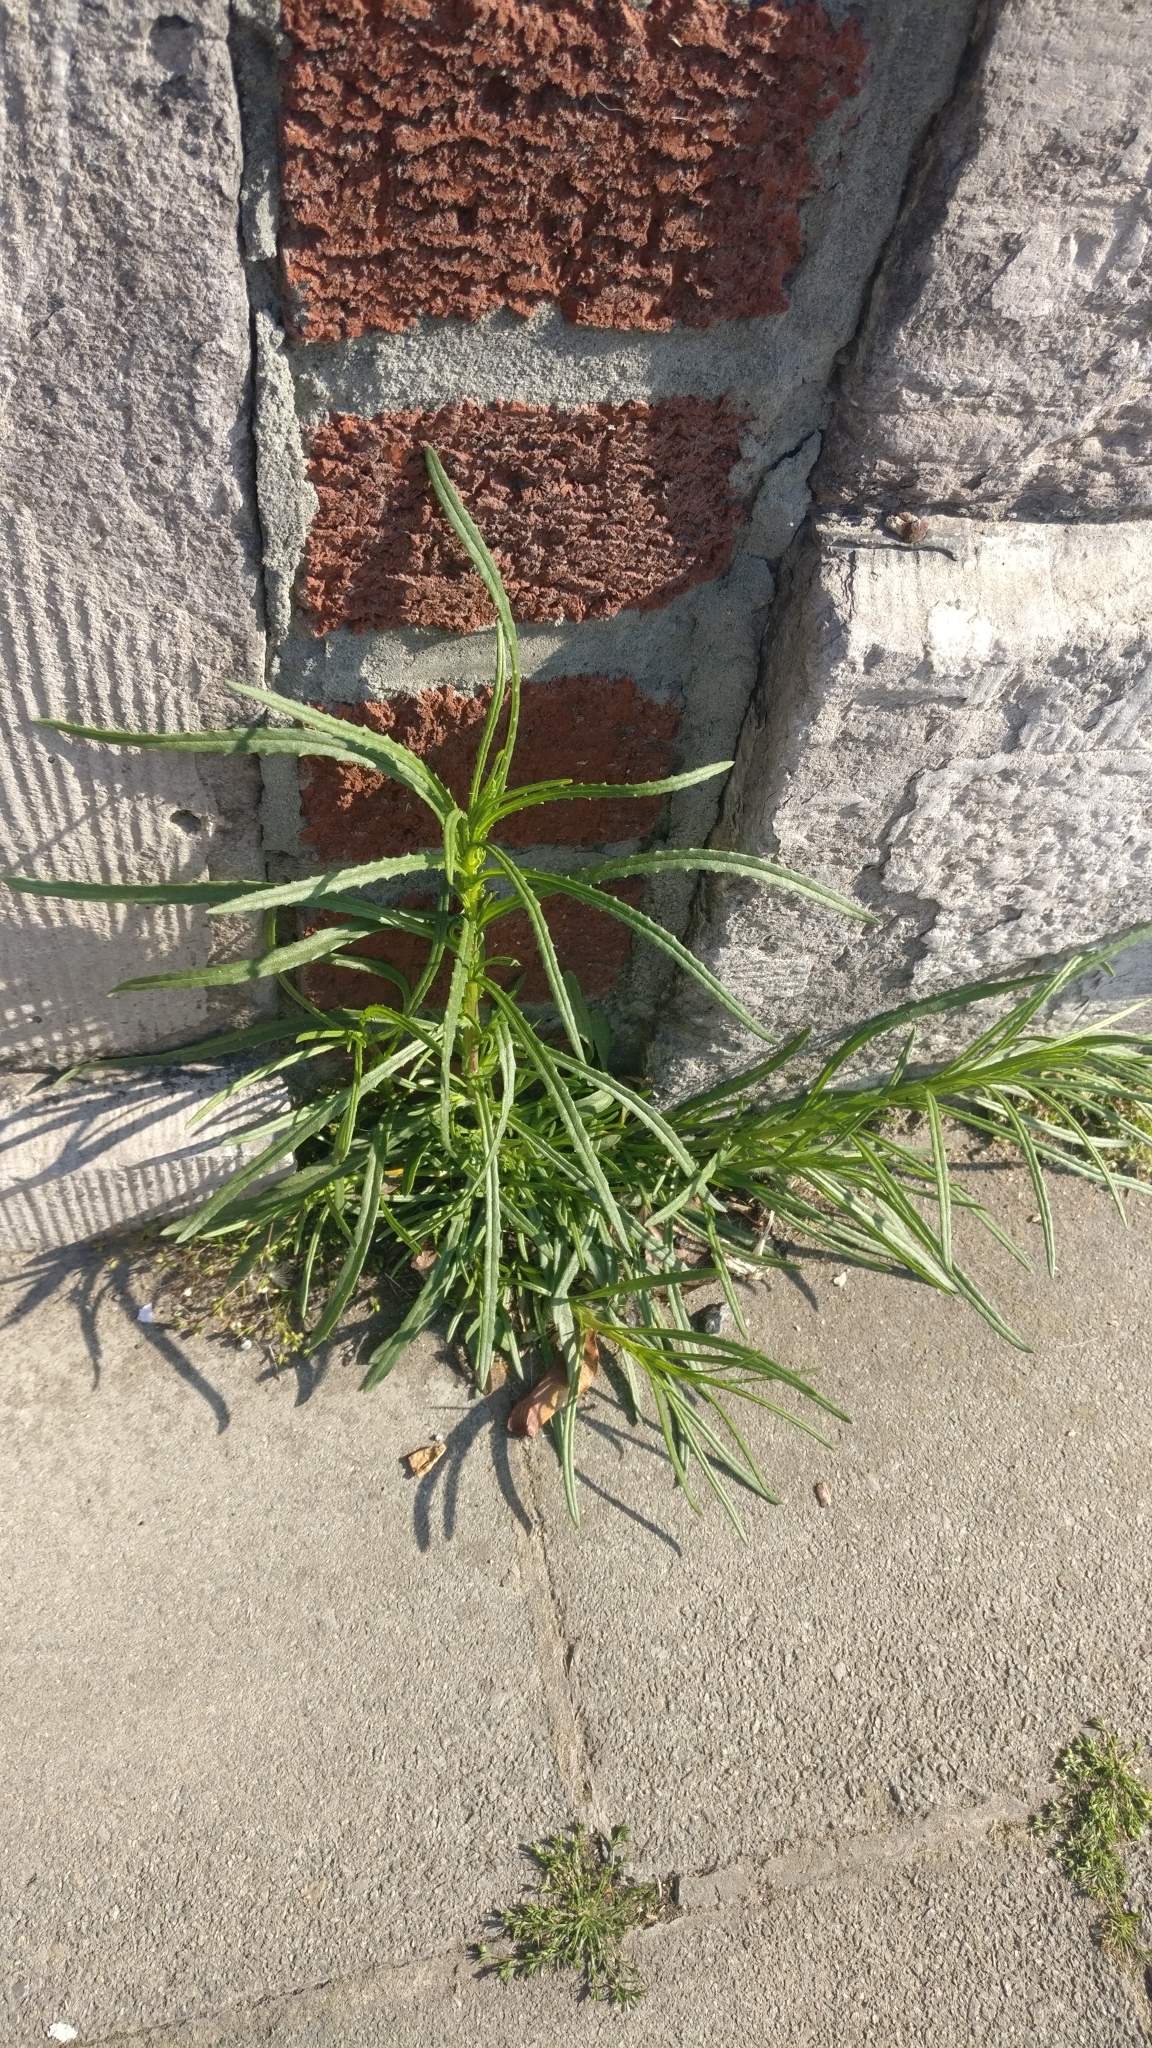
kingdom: Plantae
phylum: Tracheophyta
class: Magnoliopsida
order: Asterales
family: Asteraceae
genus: Senecio
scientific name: Senecio inaequidens
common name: Narrow-leaved ragwort
